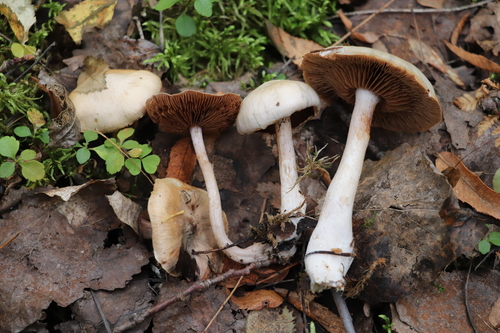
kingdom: Fungi
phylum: Basidiomycota
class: Agaricomycetes
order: Agaricales
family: Cortinariaceae
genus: Cortinarius
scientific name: Cortinarius alboviolaceus
